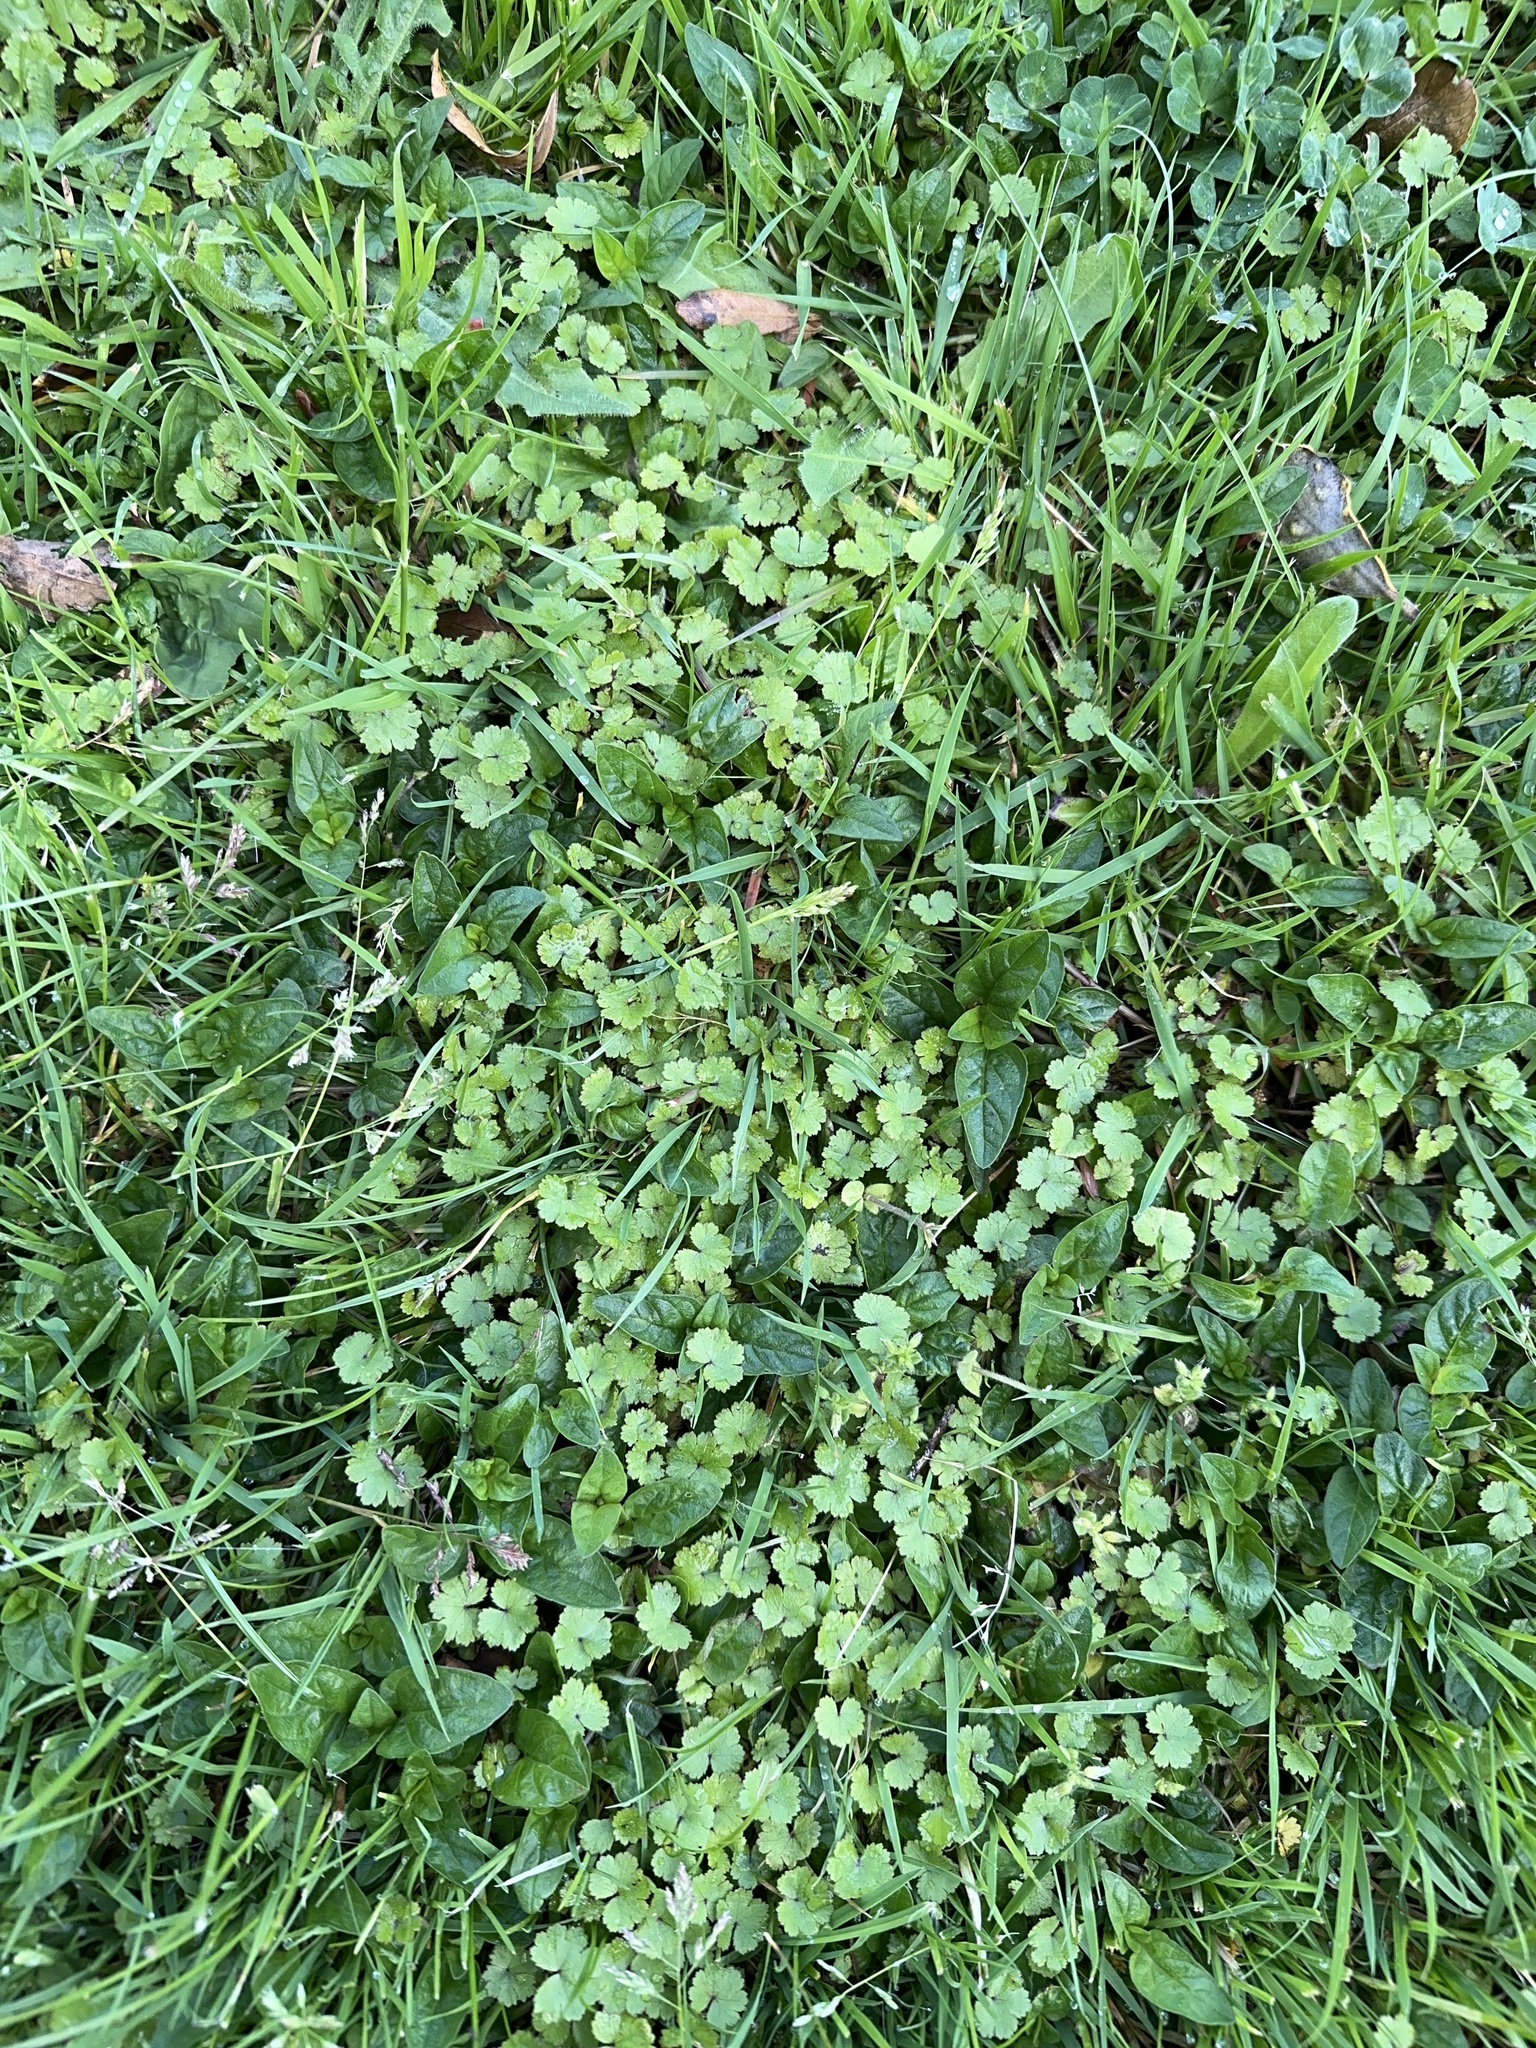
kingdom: Plantae
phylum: Tracheophyta
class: Magnoliopsida
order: Apiales
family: Araliaceae
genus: Hydrocotyle
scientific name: Hydrocotyle moschata
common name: Hairy pennywort
